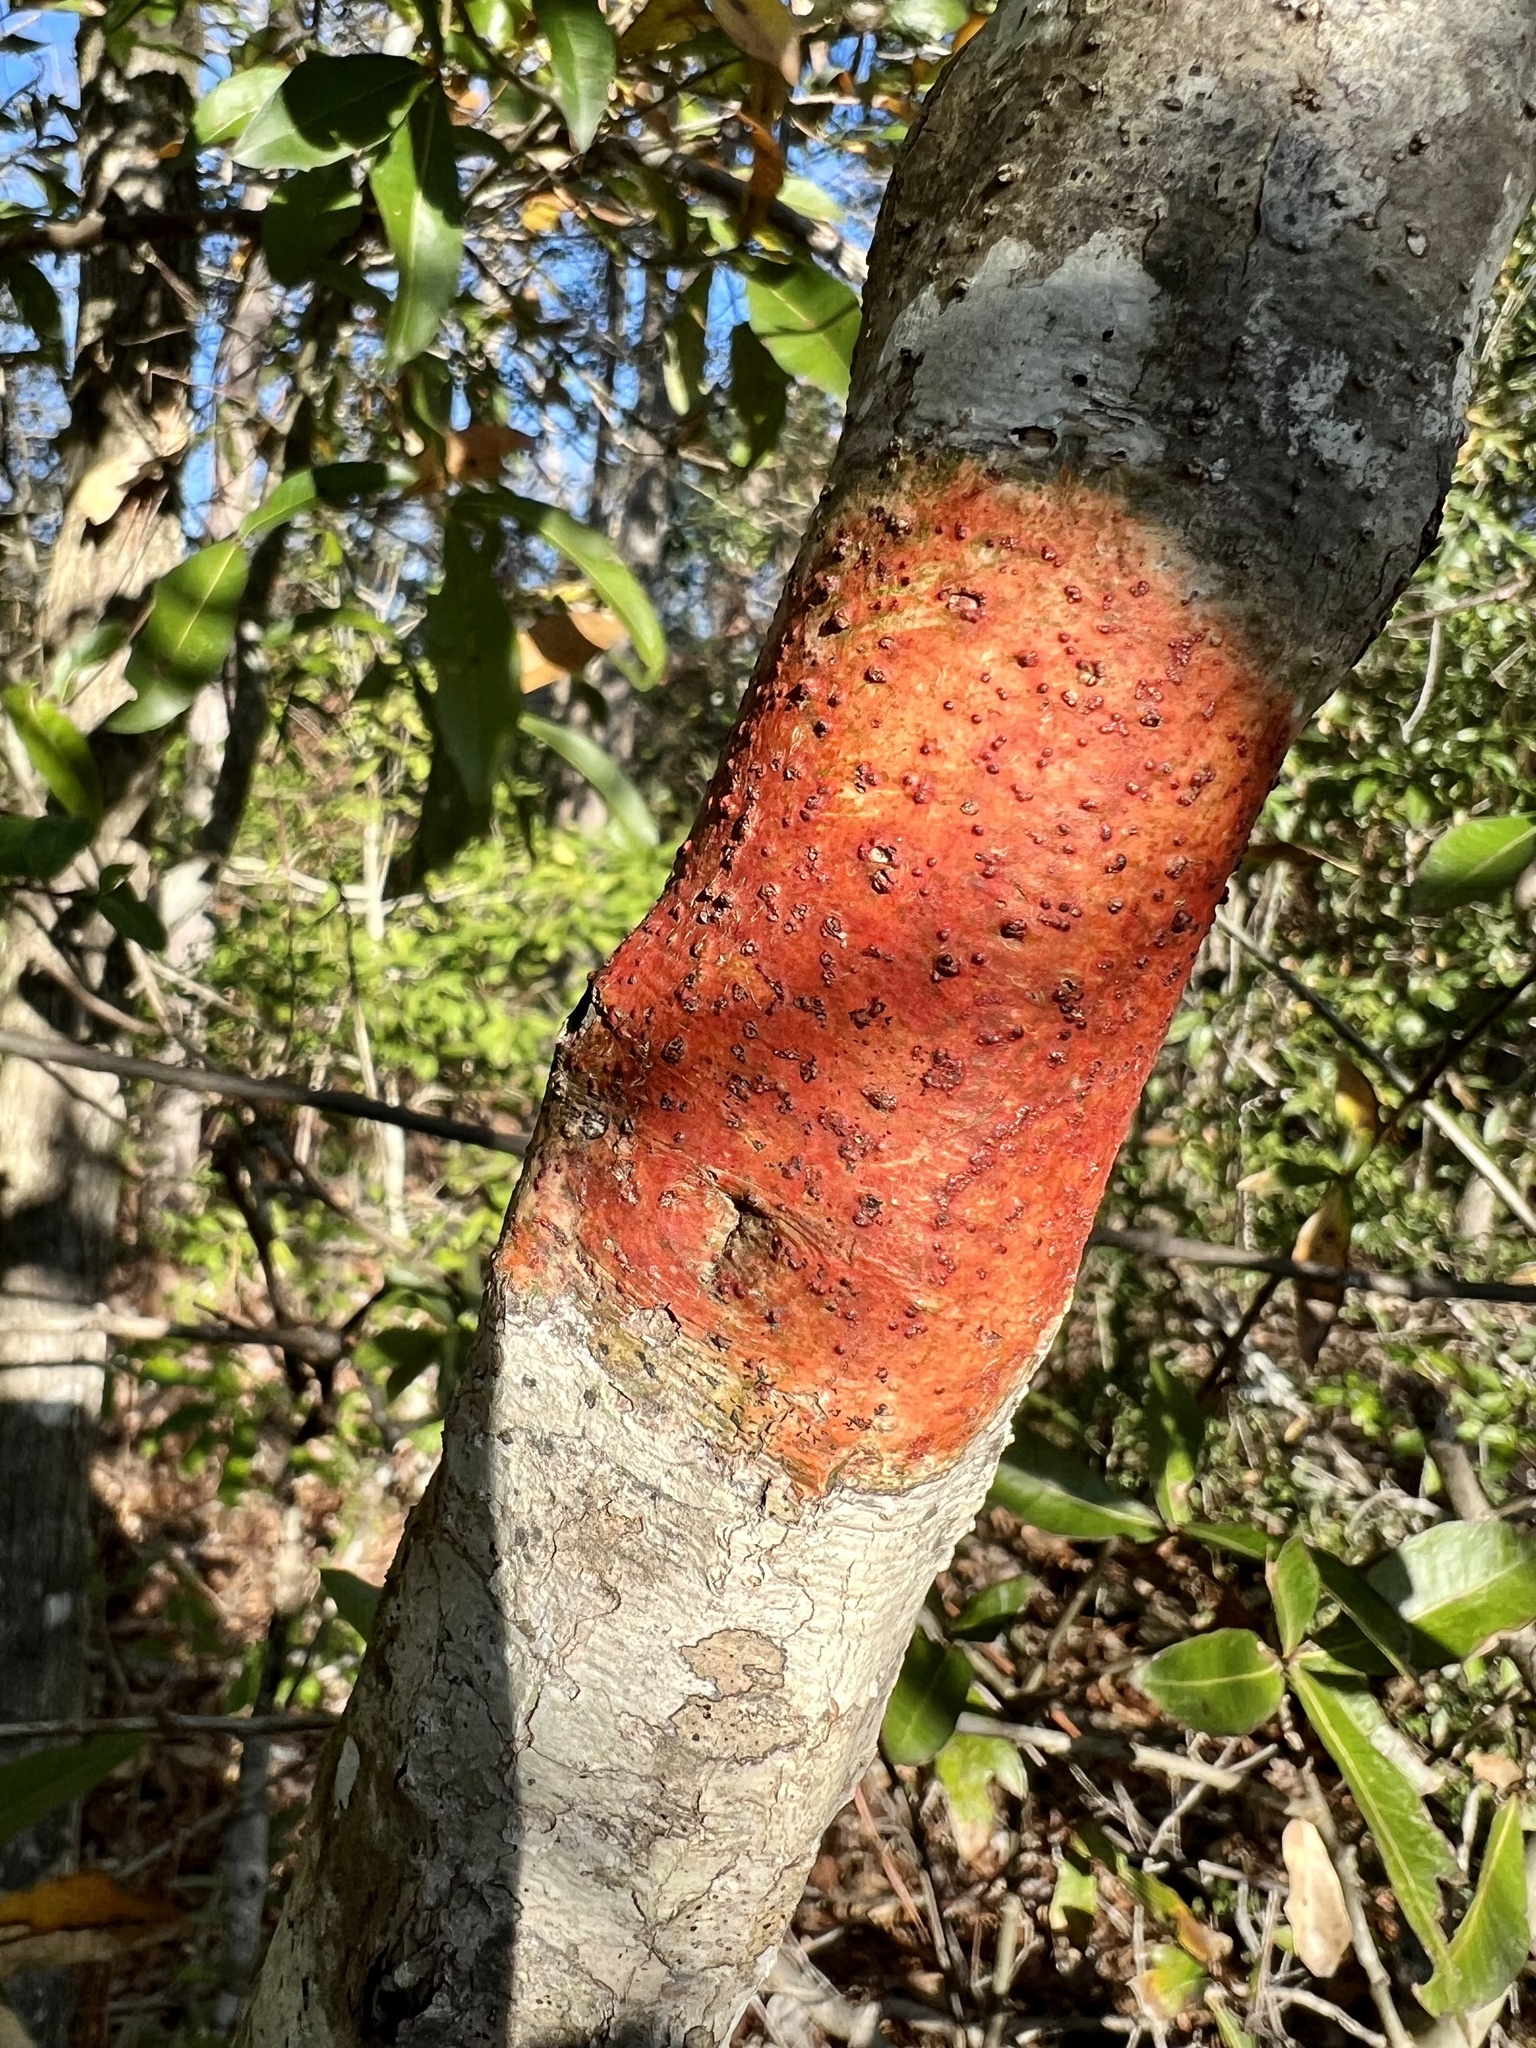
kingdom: Fungi
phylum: Ascomycota
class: Eurotiomycetes
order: Pyrenulales
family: Pyrenulaceae
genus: Pyrenula
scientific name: Pyrenula cruenta
